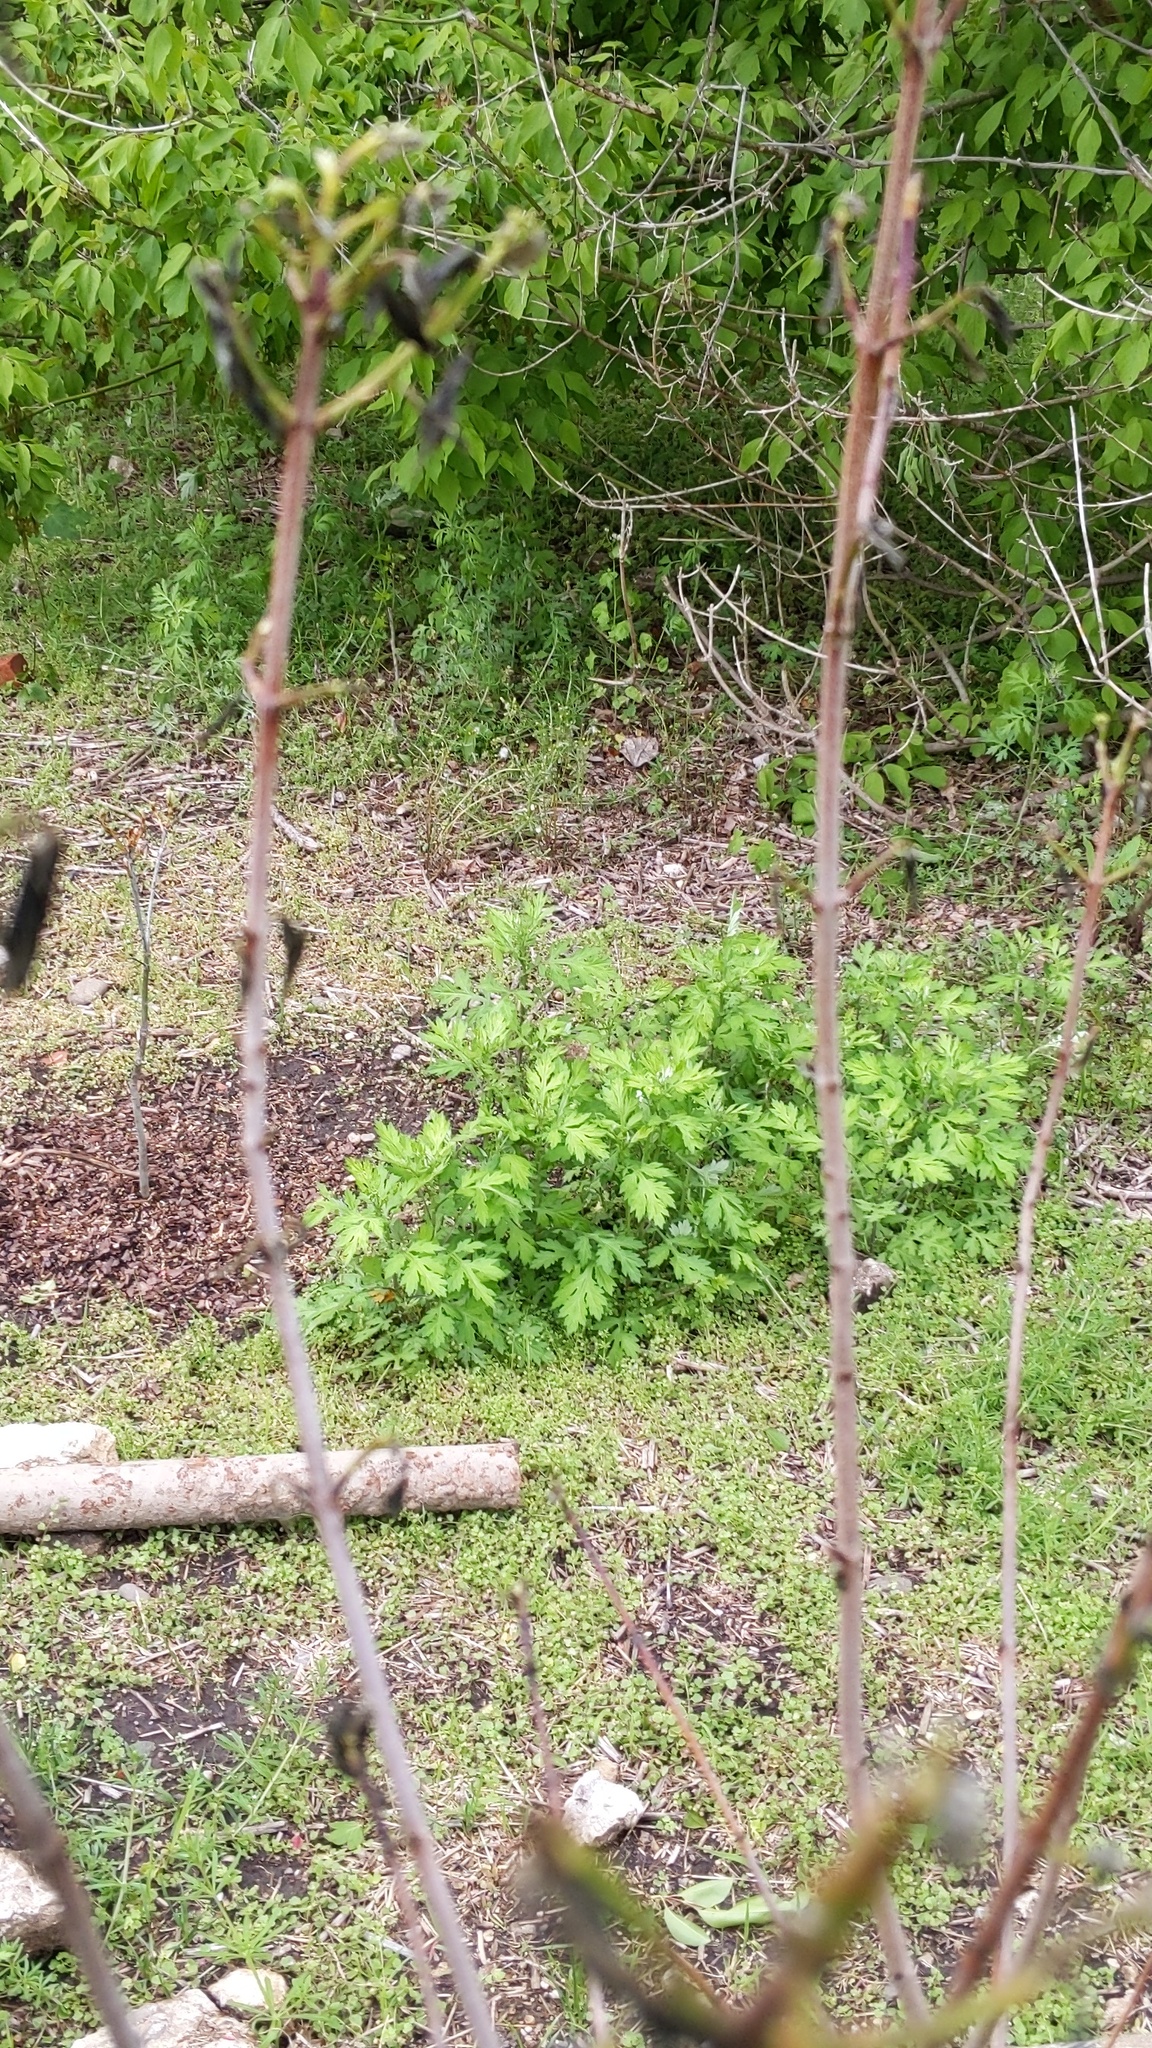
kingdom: Plantae
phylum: Tracheophyta
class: Magnoliopsida
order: Asterales
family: Asteraceae
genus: Artemisia
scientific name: Artemisia vulgaris
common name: Mugwort
